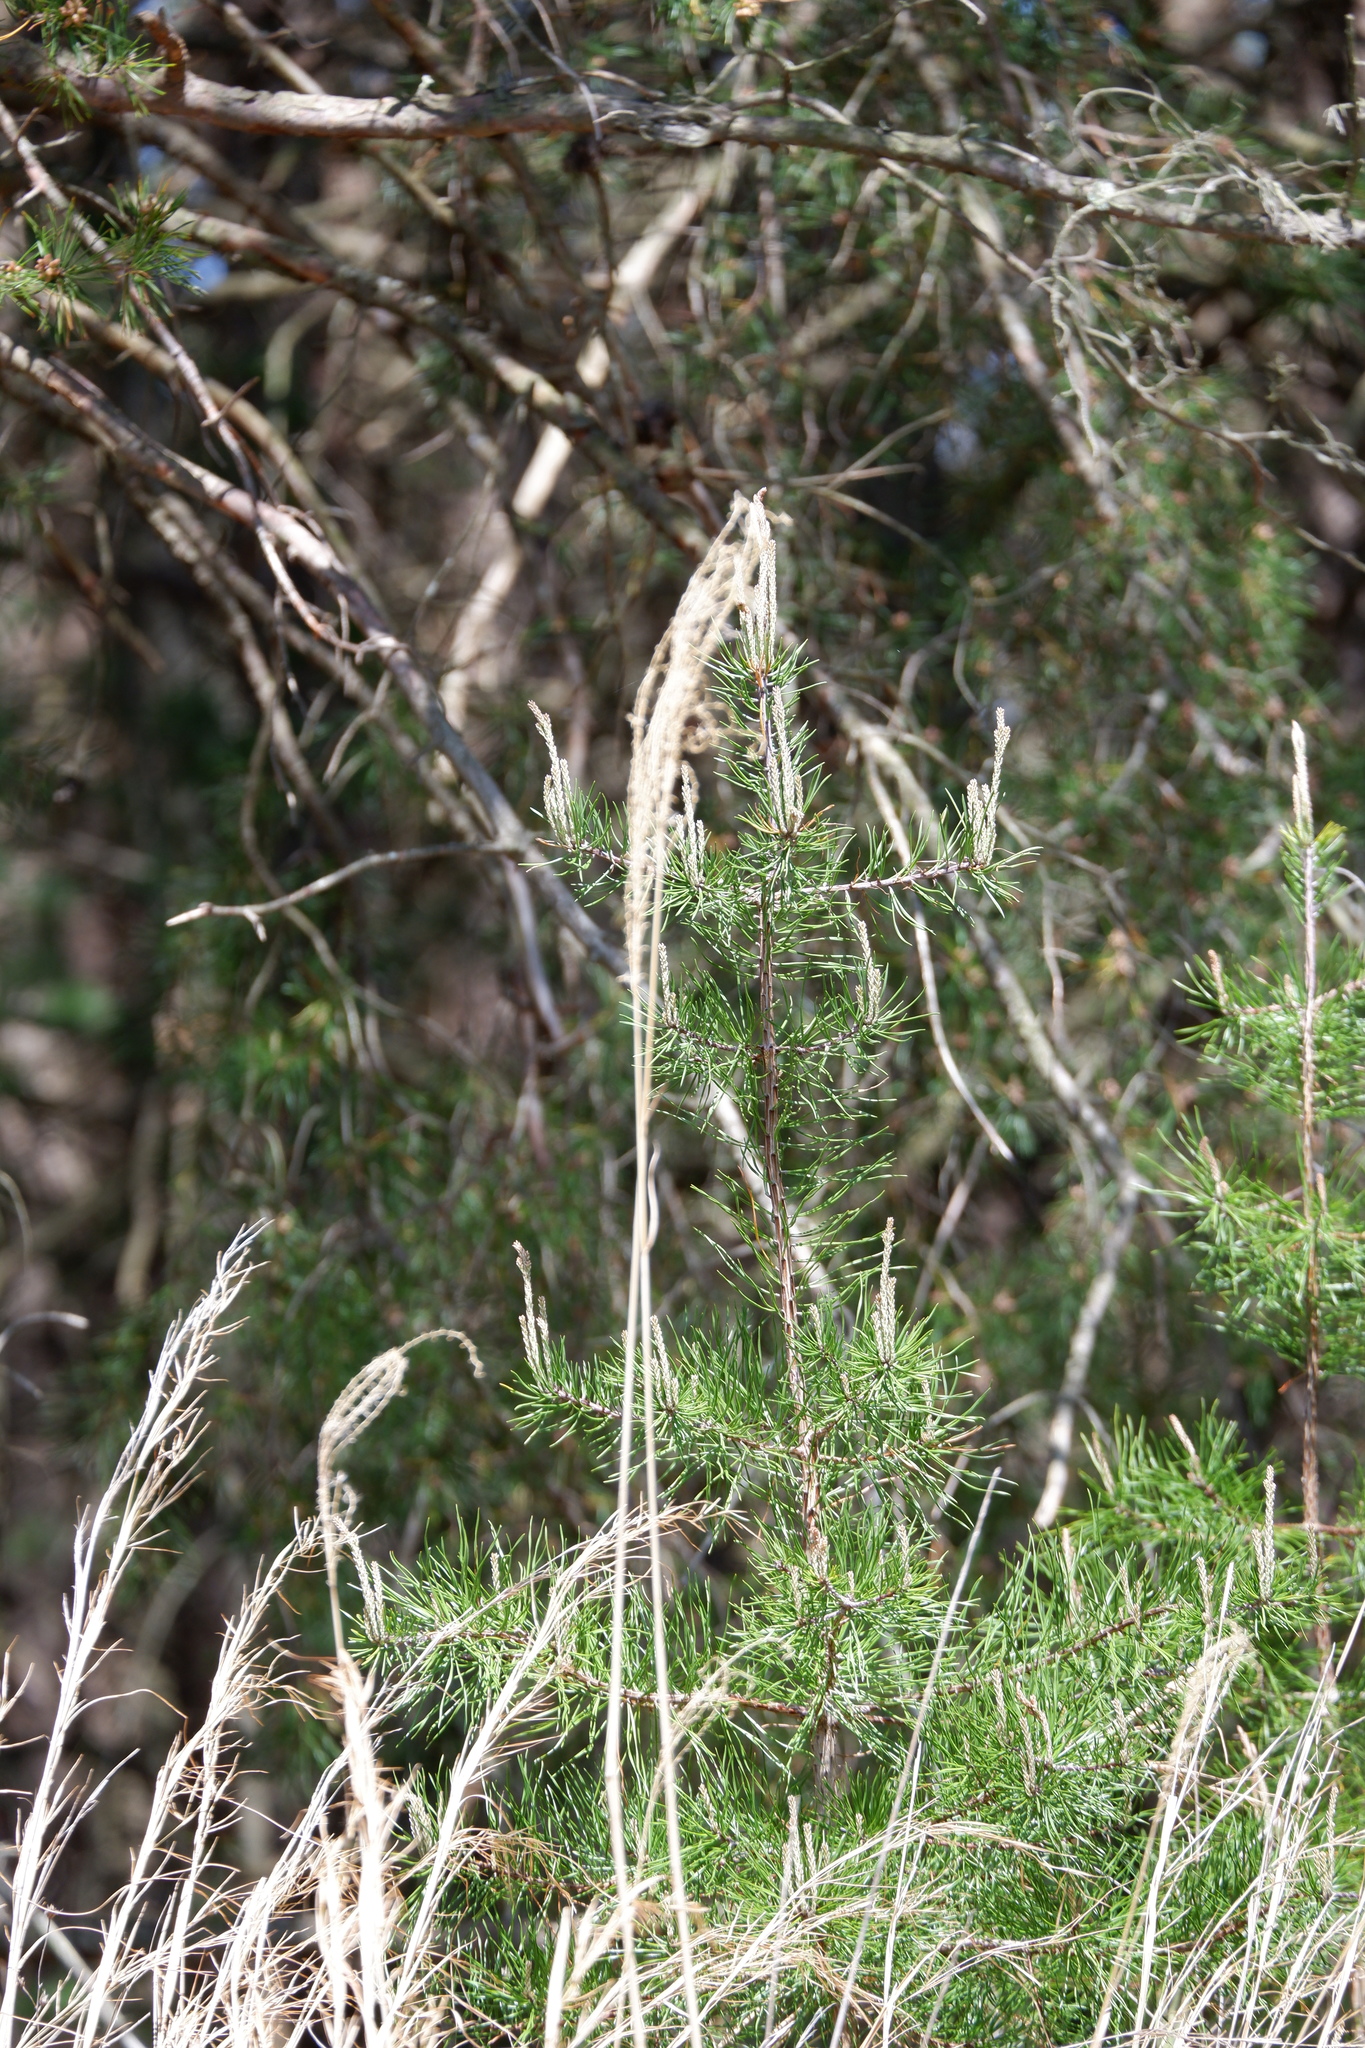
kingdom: Plantae
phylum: Tracheophyta
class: Liliopsida
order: Poales
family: Poaceae
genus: Miscanthus
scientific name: Miscanthus sinensis
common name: Chinese silvergrass
